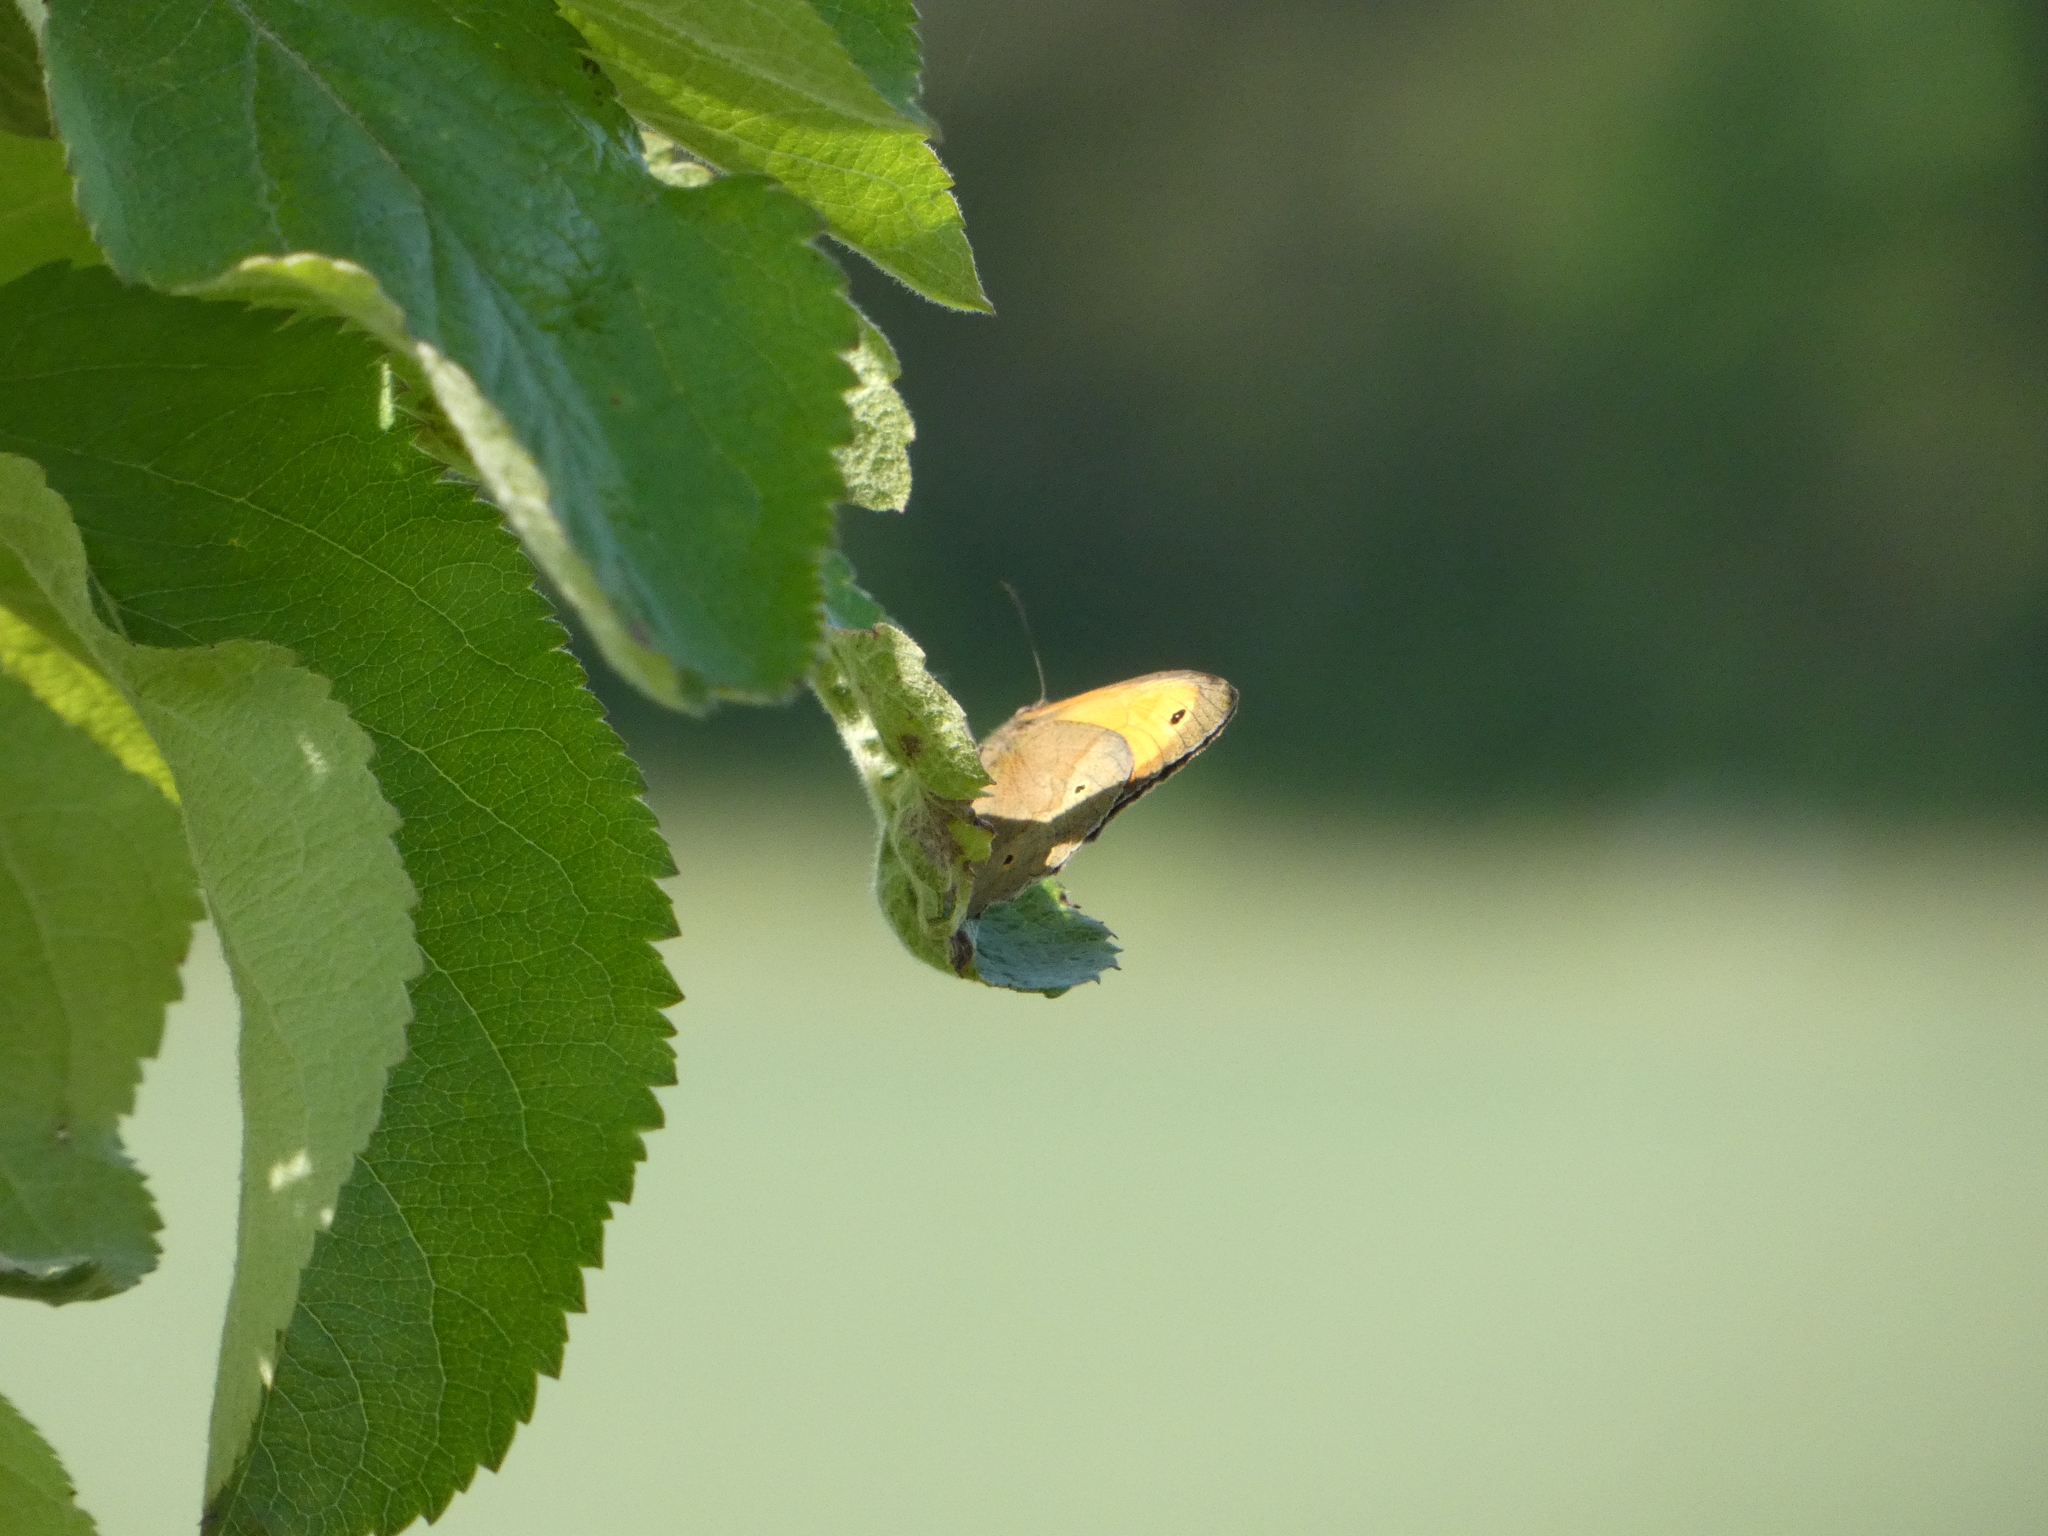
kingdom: Animalia
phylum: Arthropoda
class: Insecta
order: Lepidoptera
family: Nymphalidae
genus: Maniola
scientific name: Maniola jurtina
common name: Meadow brown
